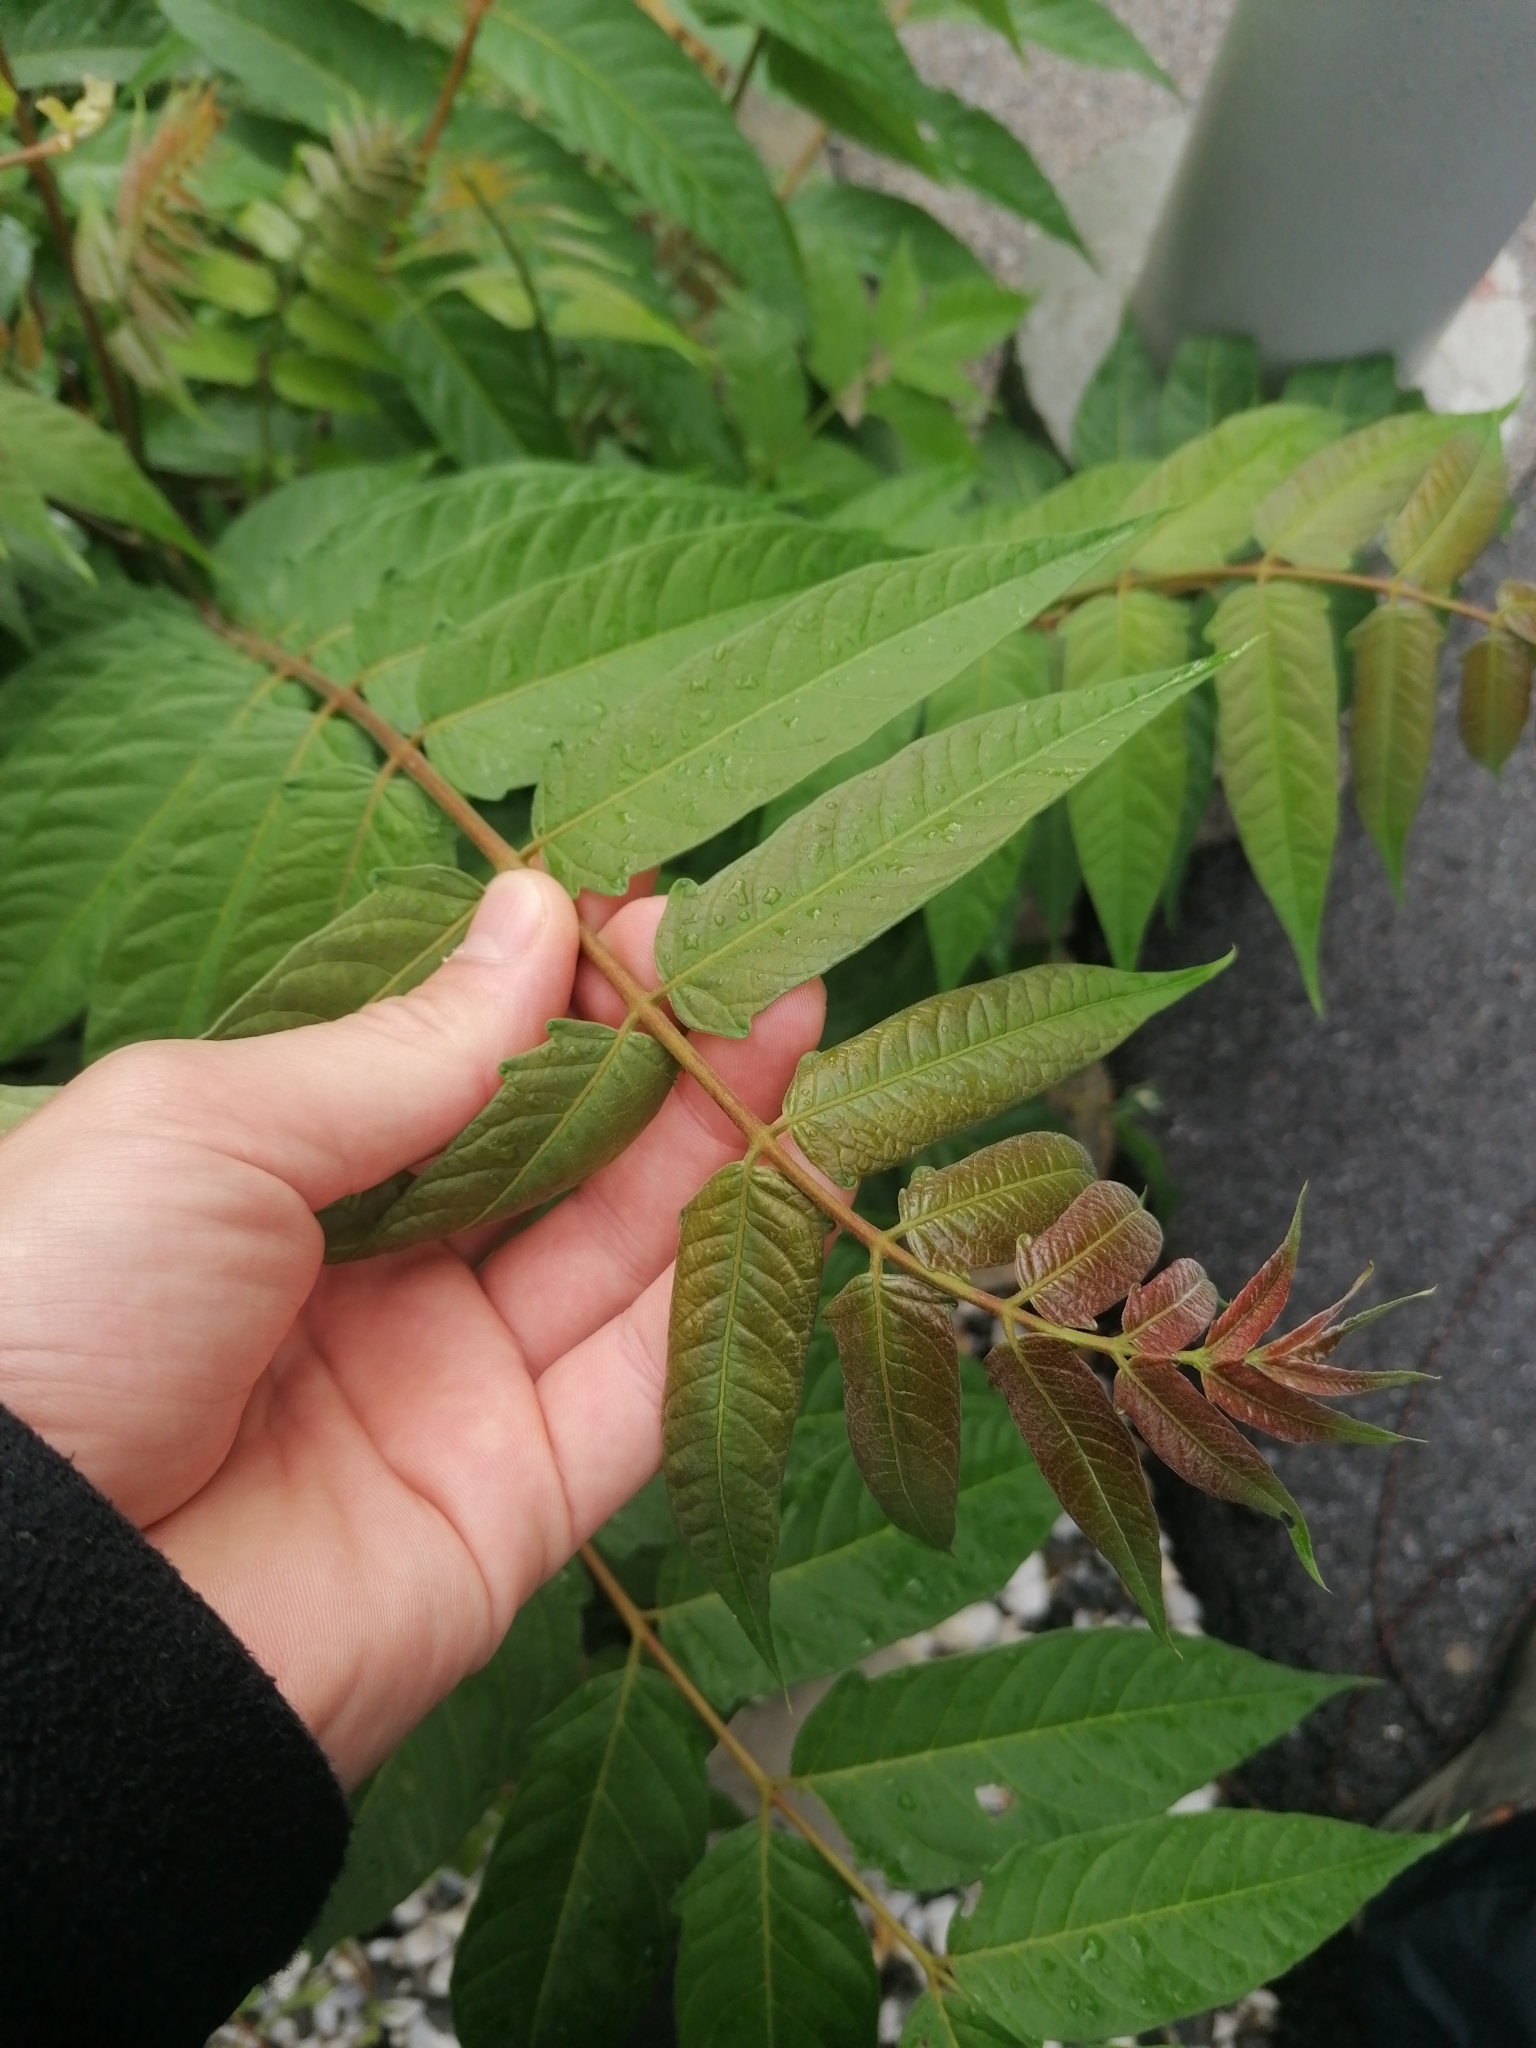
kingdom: Plantae
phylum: Tracheophyta
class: Magnoliopsida
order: Sapindales
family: Simaroubaceae
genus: Ailanthus
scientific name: Ailanthus altissima
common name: Tree-of-heaven
